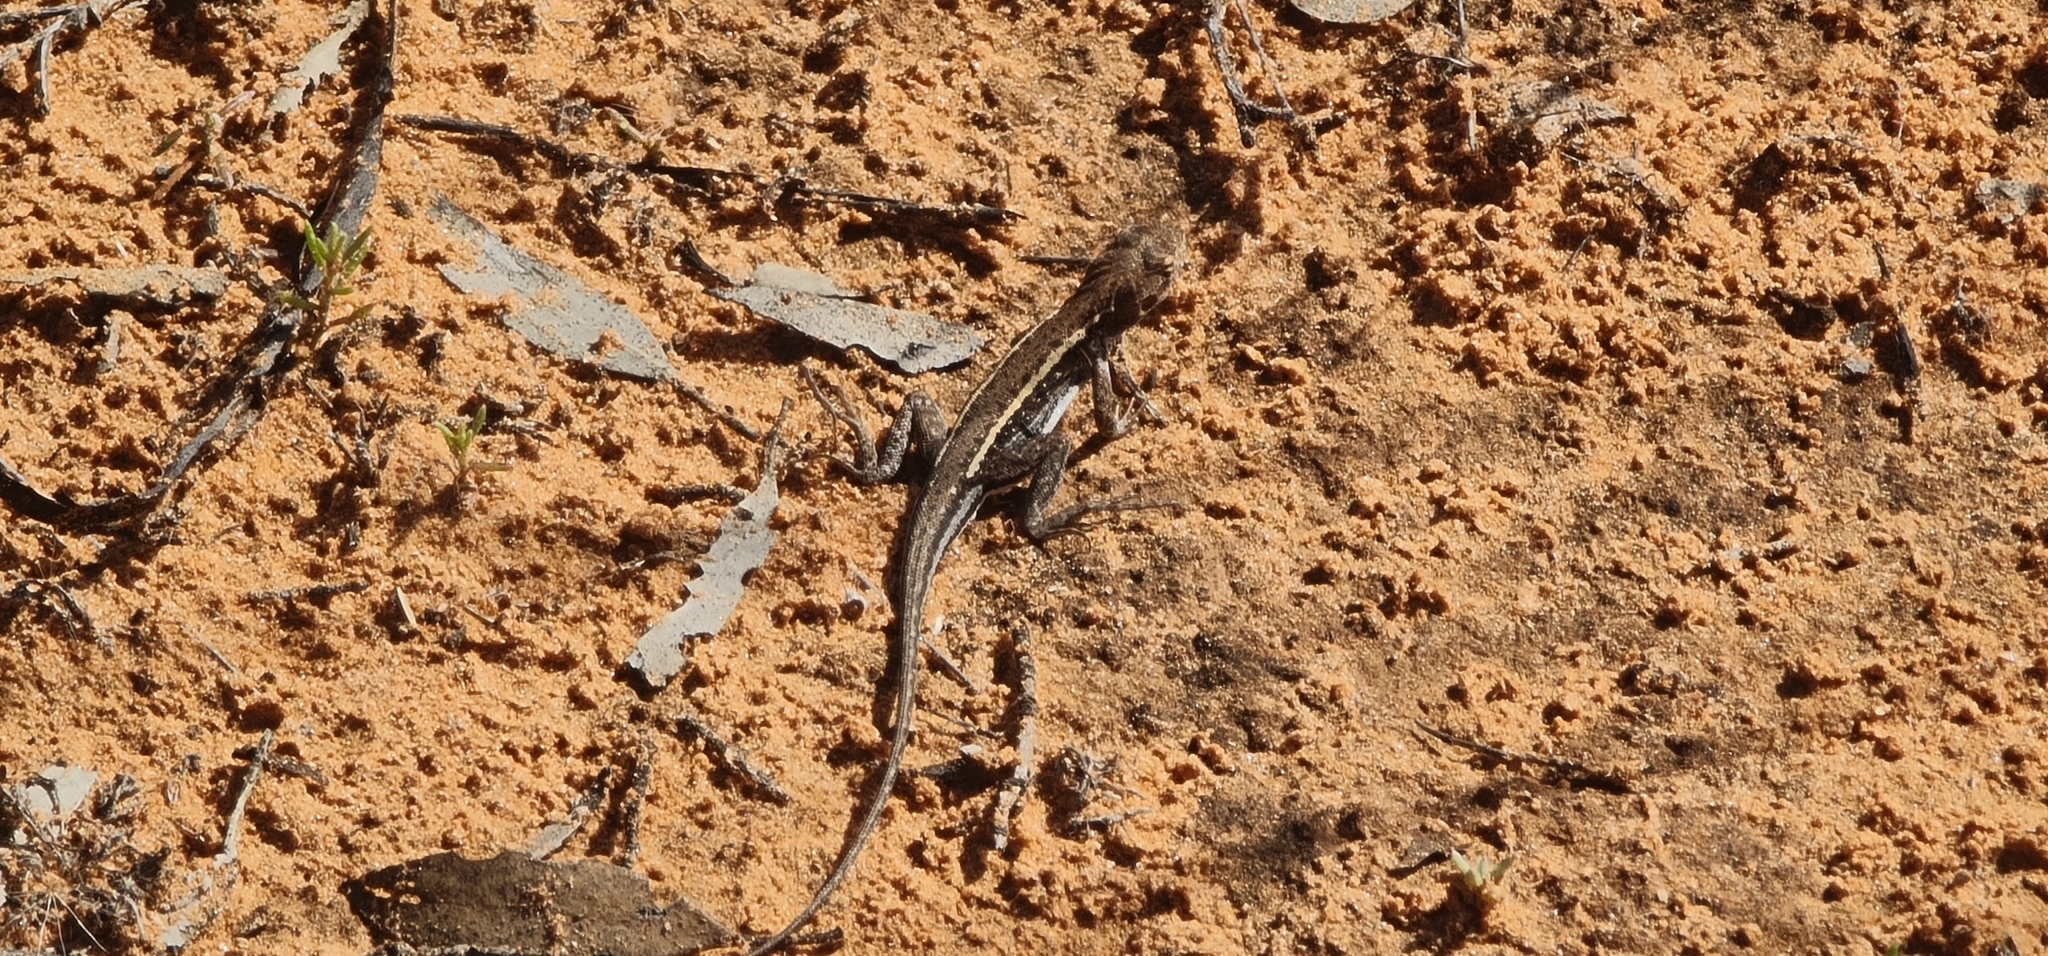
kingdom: Animalia
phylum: Chordata
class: Squamata
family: Agamidae
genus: Ctenophorus
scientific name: Ctenophorus spinodomus
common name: Eastern mallee dragon
